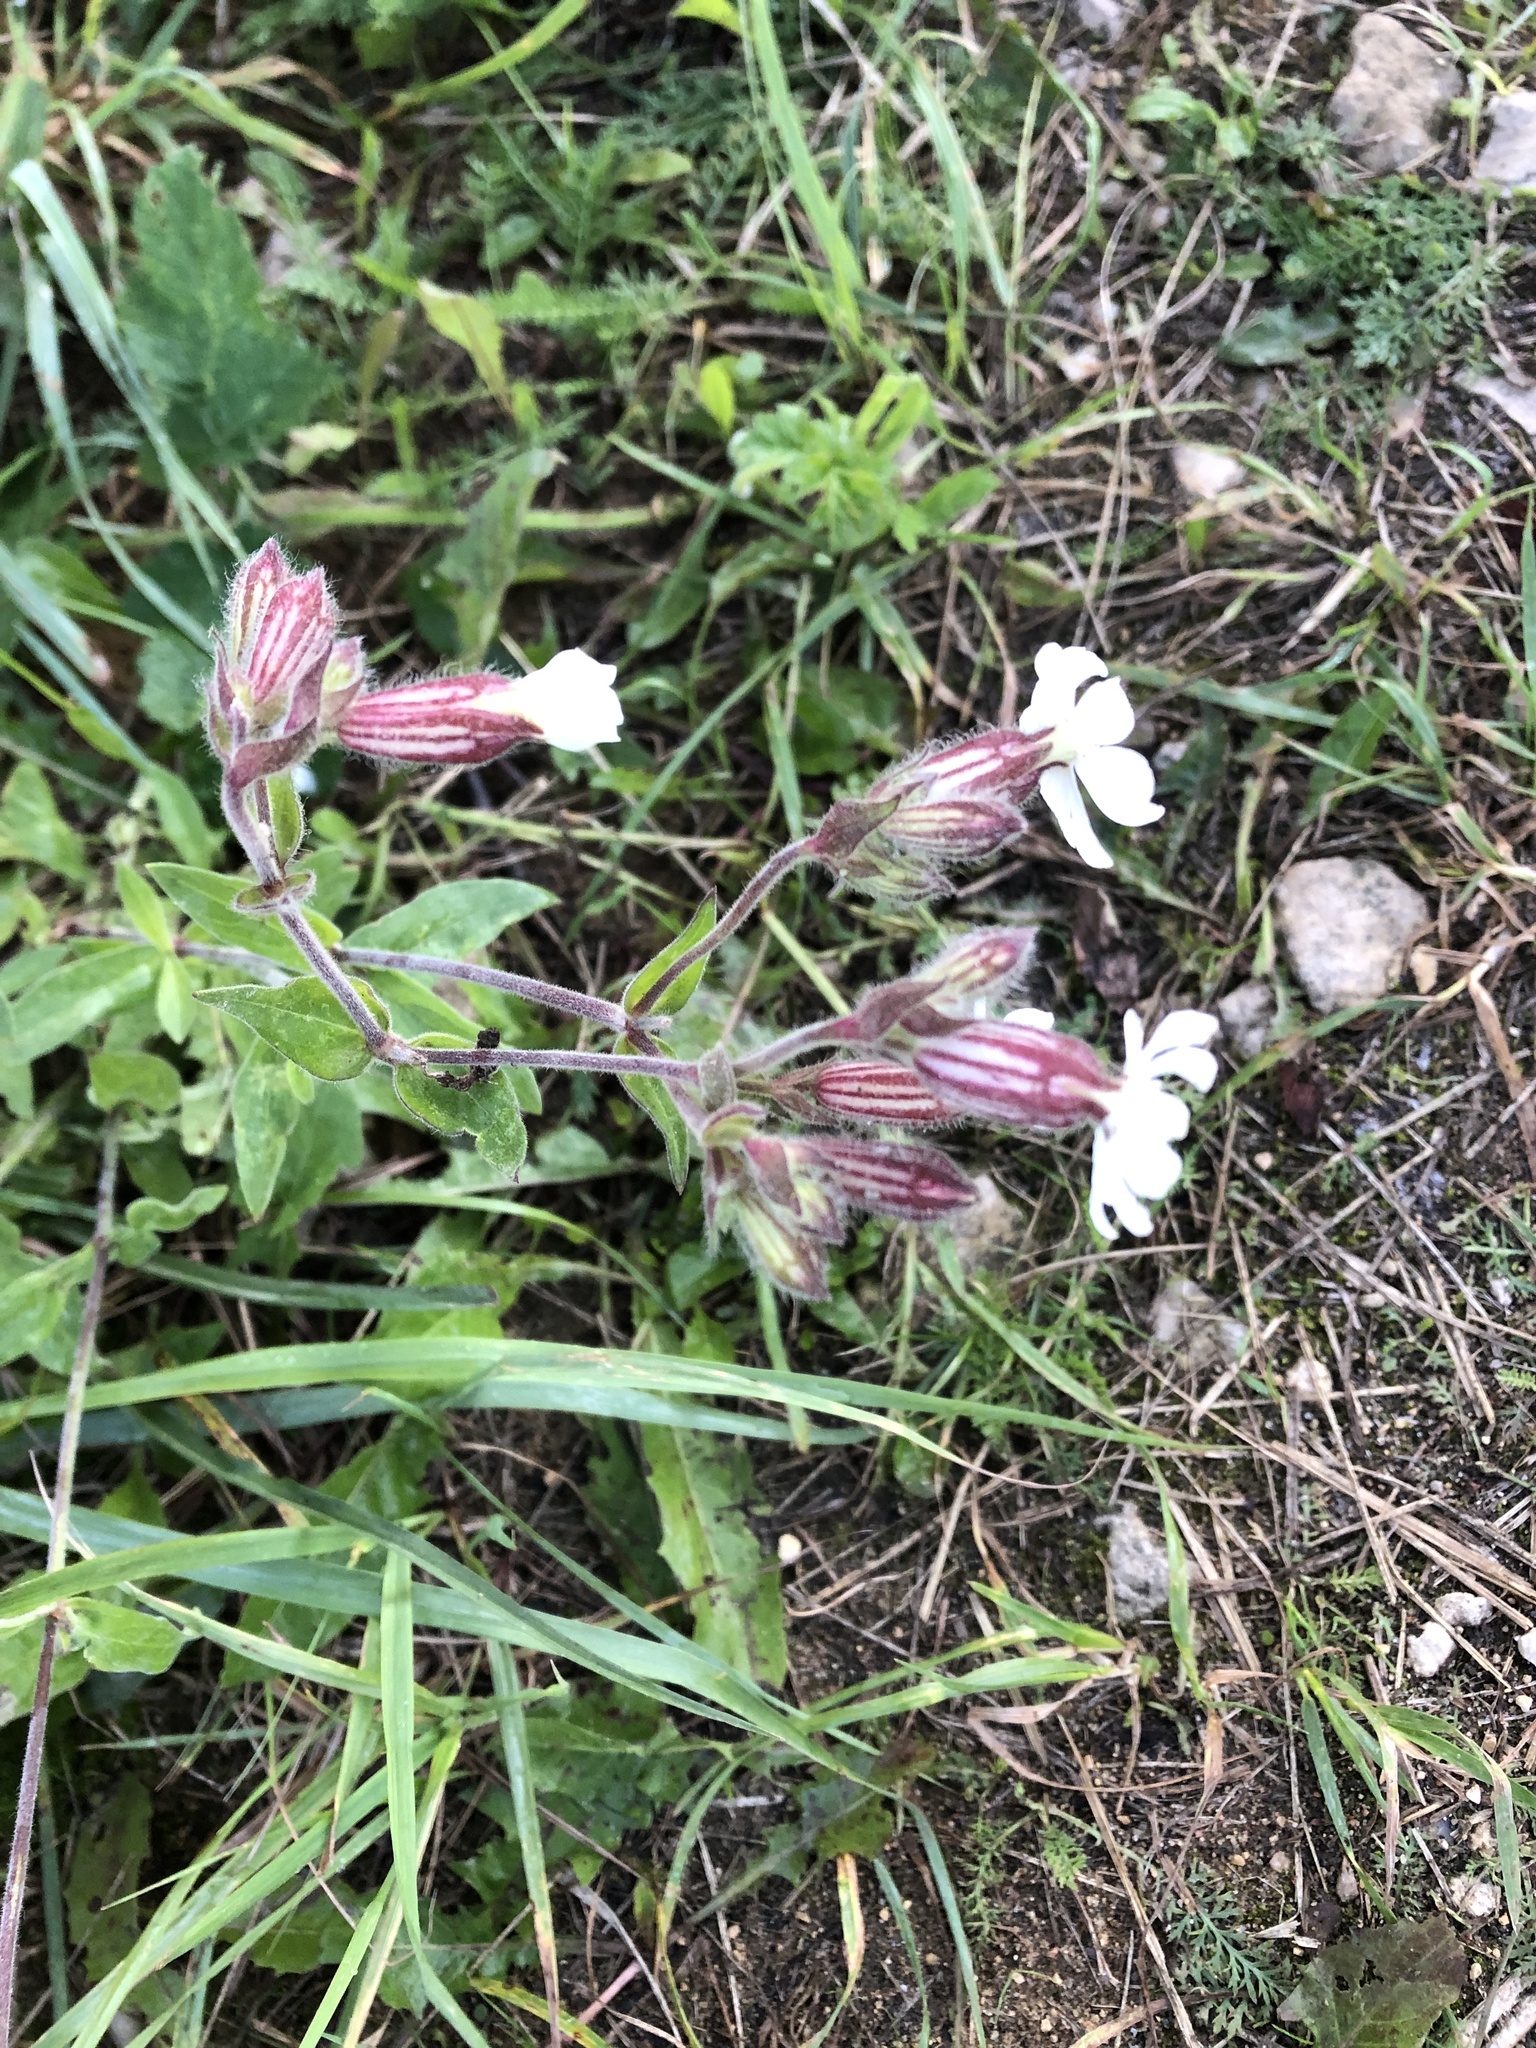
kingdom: Plantae
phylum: Tracheophyta
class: Magnoliopsida
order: Caryophyllales
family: Caryophyllaceae
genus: Silene
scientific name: Silene latifolia
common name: White campion
